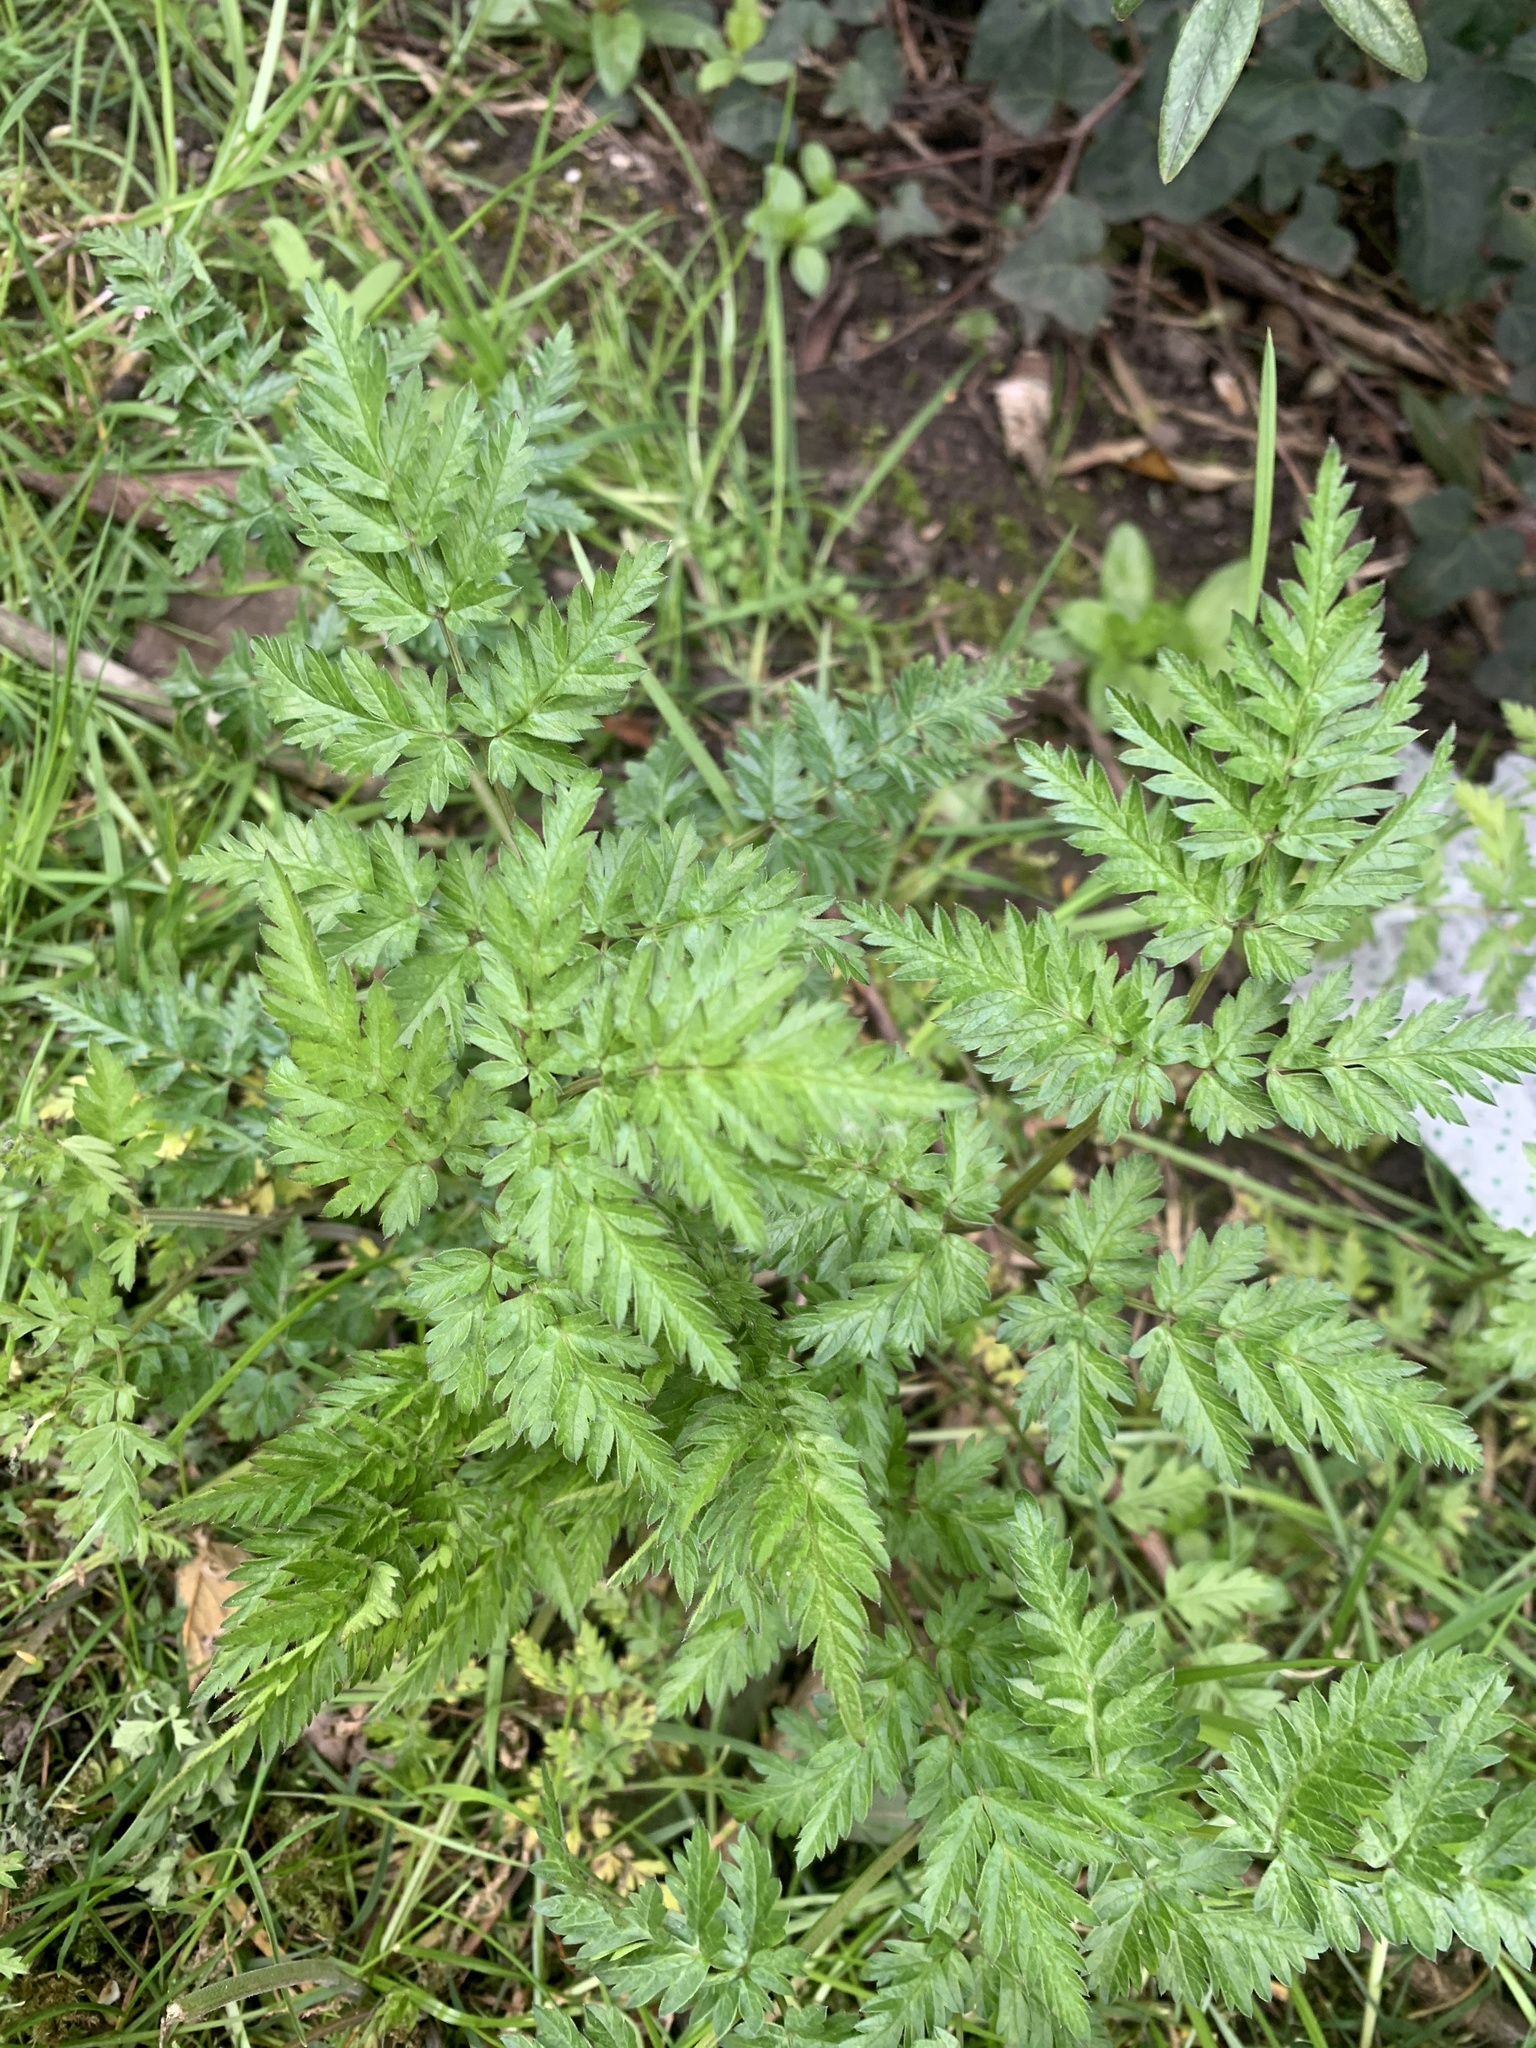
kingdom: Plantae
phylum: Tracheophyta
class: Magnoliopsida
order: Apiales
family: Apiaceae
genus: Anthriscus
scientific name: Anthriscus sylvestris
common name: Cow parsley
